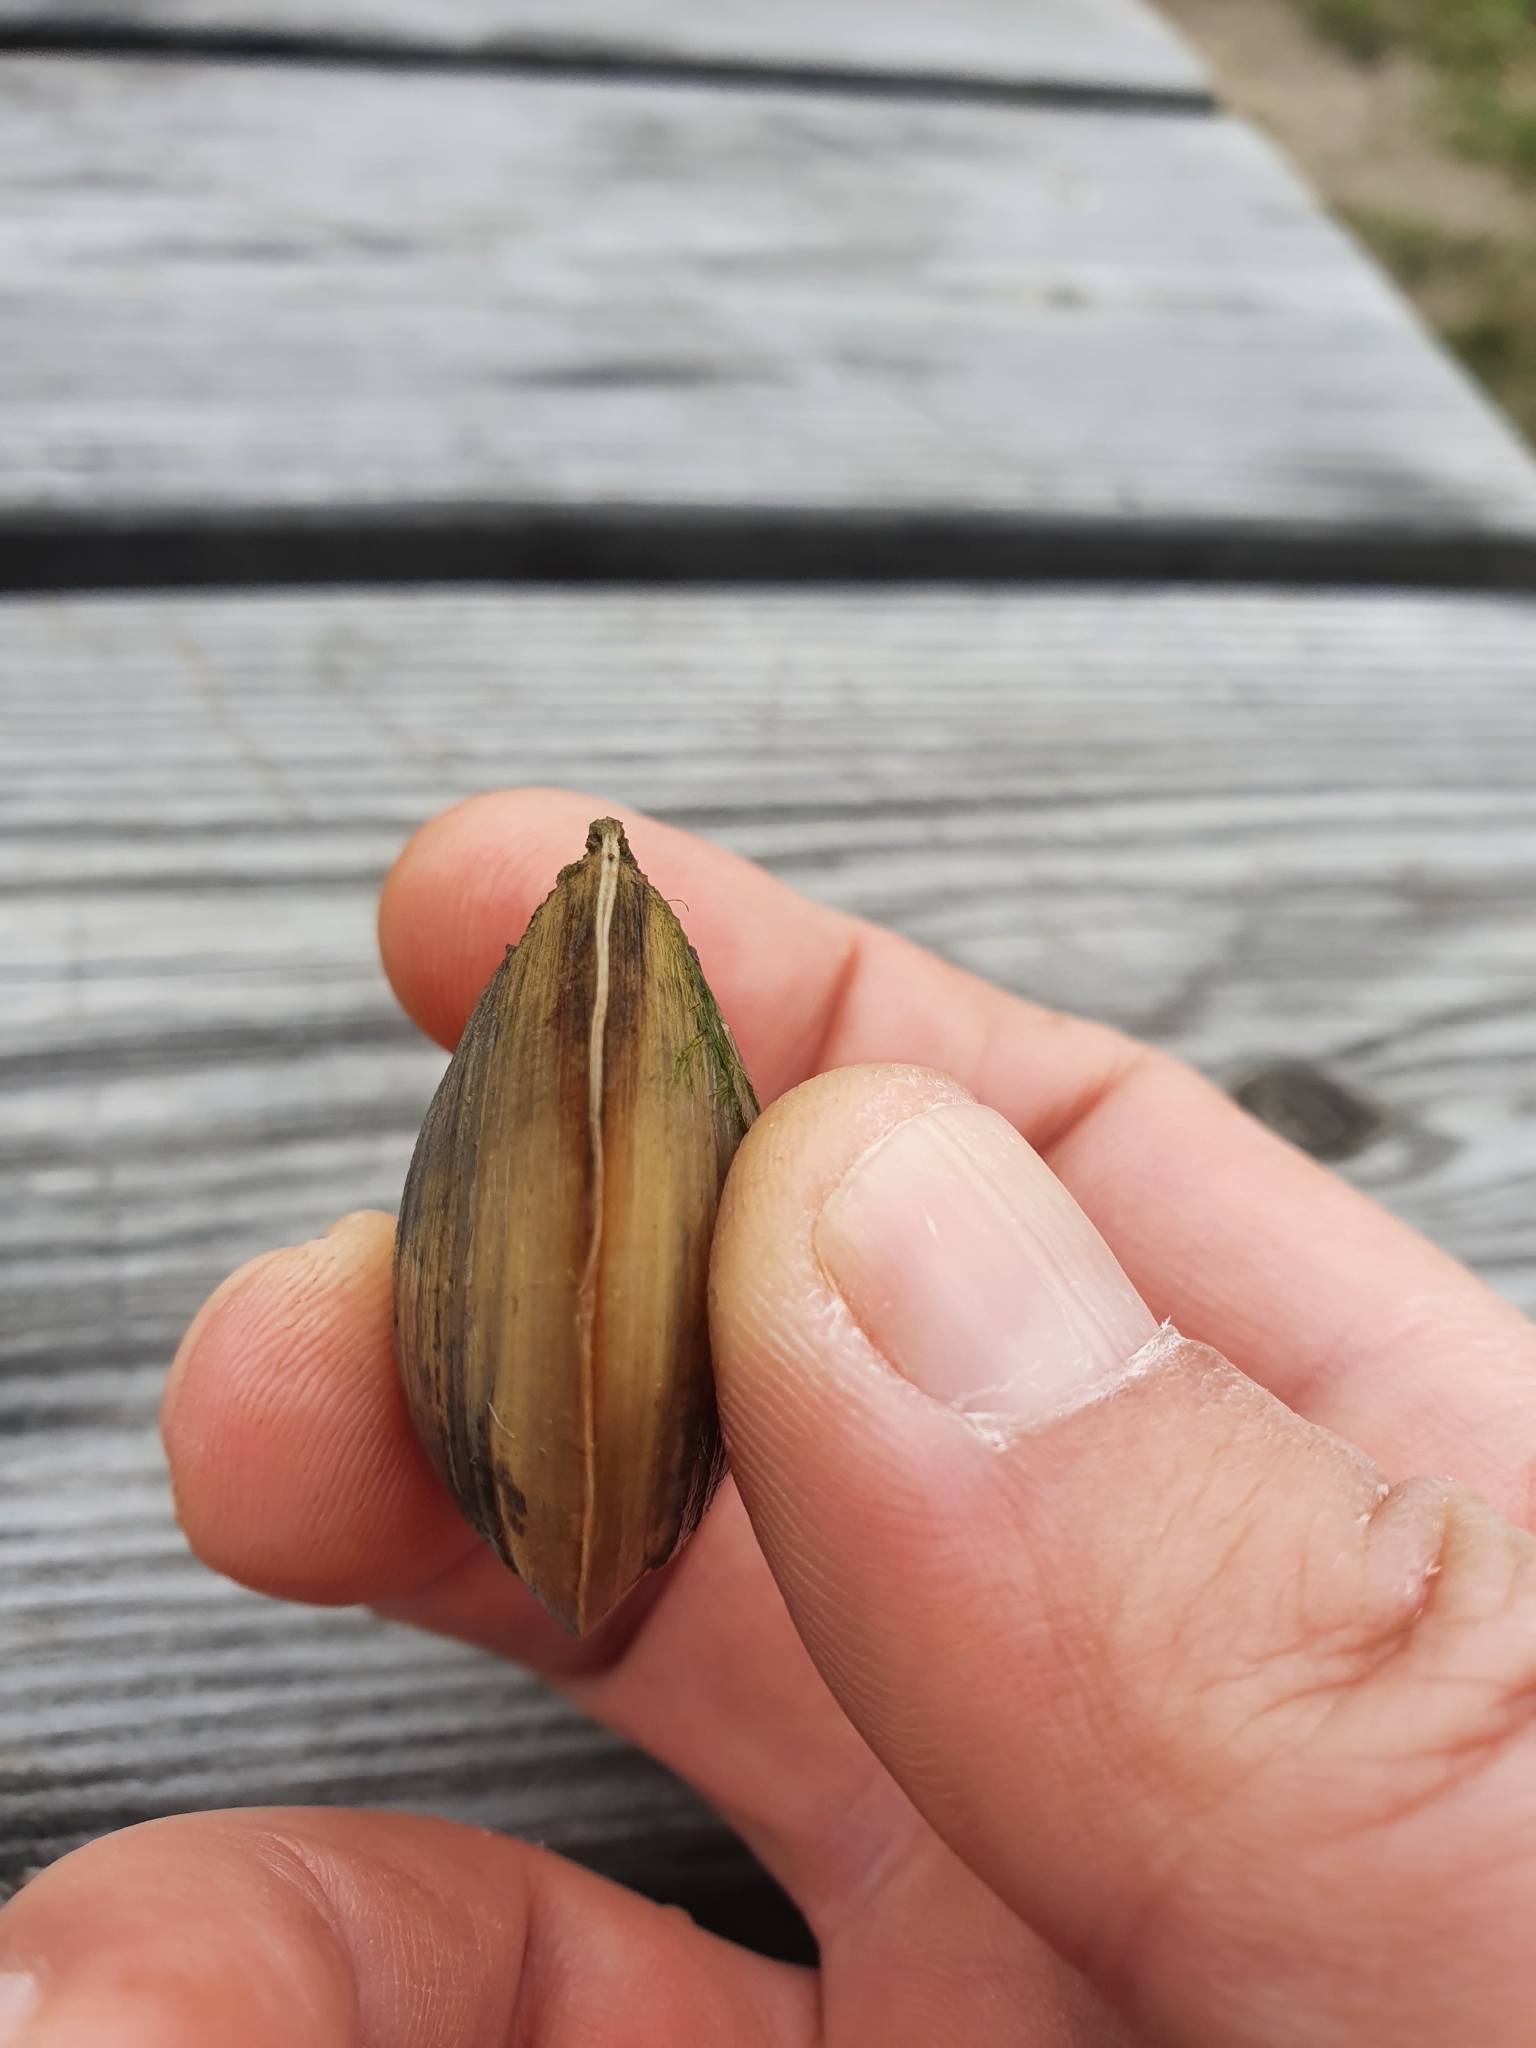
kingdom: Animalia
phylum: Mollusca
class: Bivalvia
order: Venerida
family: Mactridae
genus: Rangia
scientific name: Rangia cuneata
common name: Atlantic rangia
